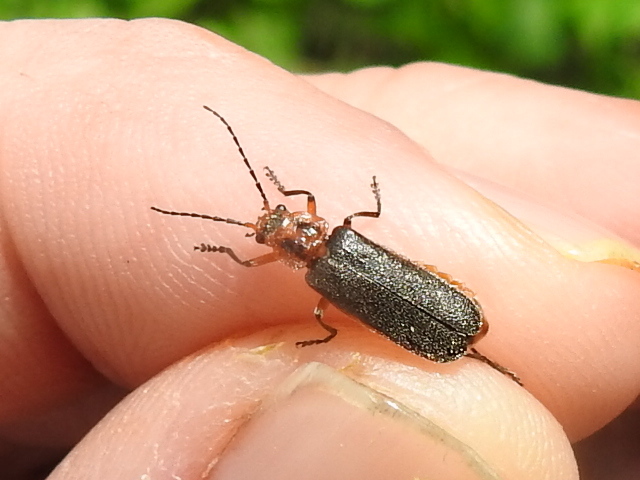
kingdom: Animalia
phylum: Arthropoda
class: Insecta
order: Coleoptera
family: Cantharidae
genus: Atalantycha
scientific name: Atalantycha bilineata
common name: Two-lined leatherwing
